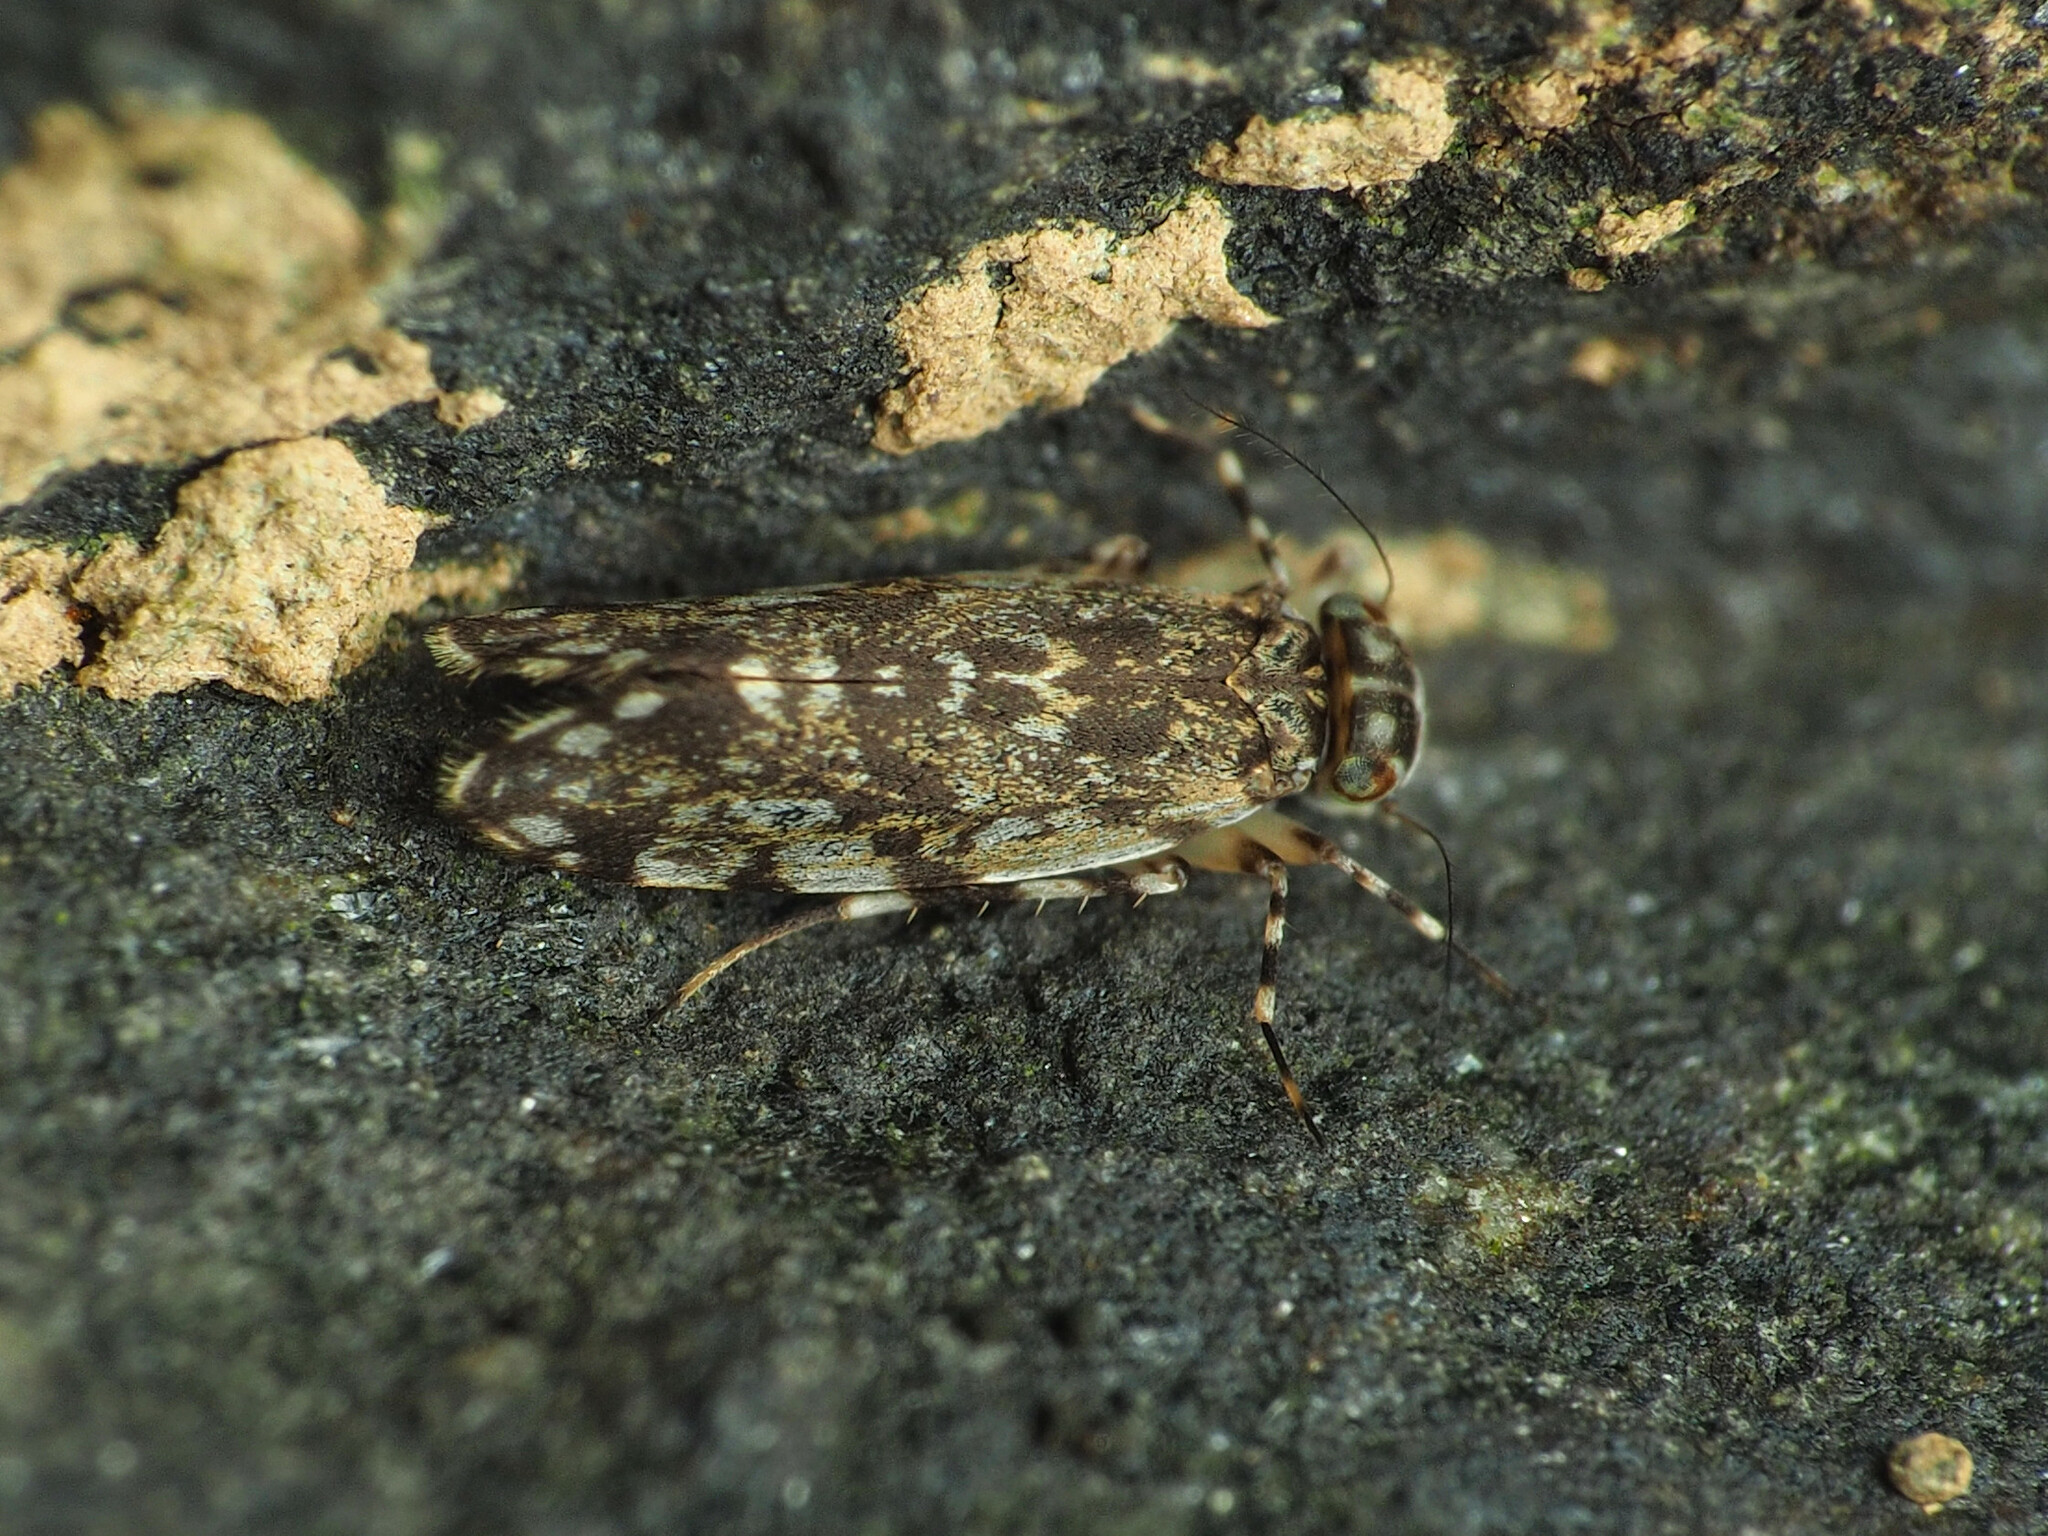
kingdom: Animalia
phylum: Arthropoda
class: Insecta
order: Psocodea
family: Amphientomidae
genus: Stimulopalpus
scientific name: Stimulopalpus japonicus
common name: Tropical bark louse
